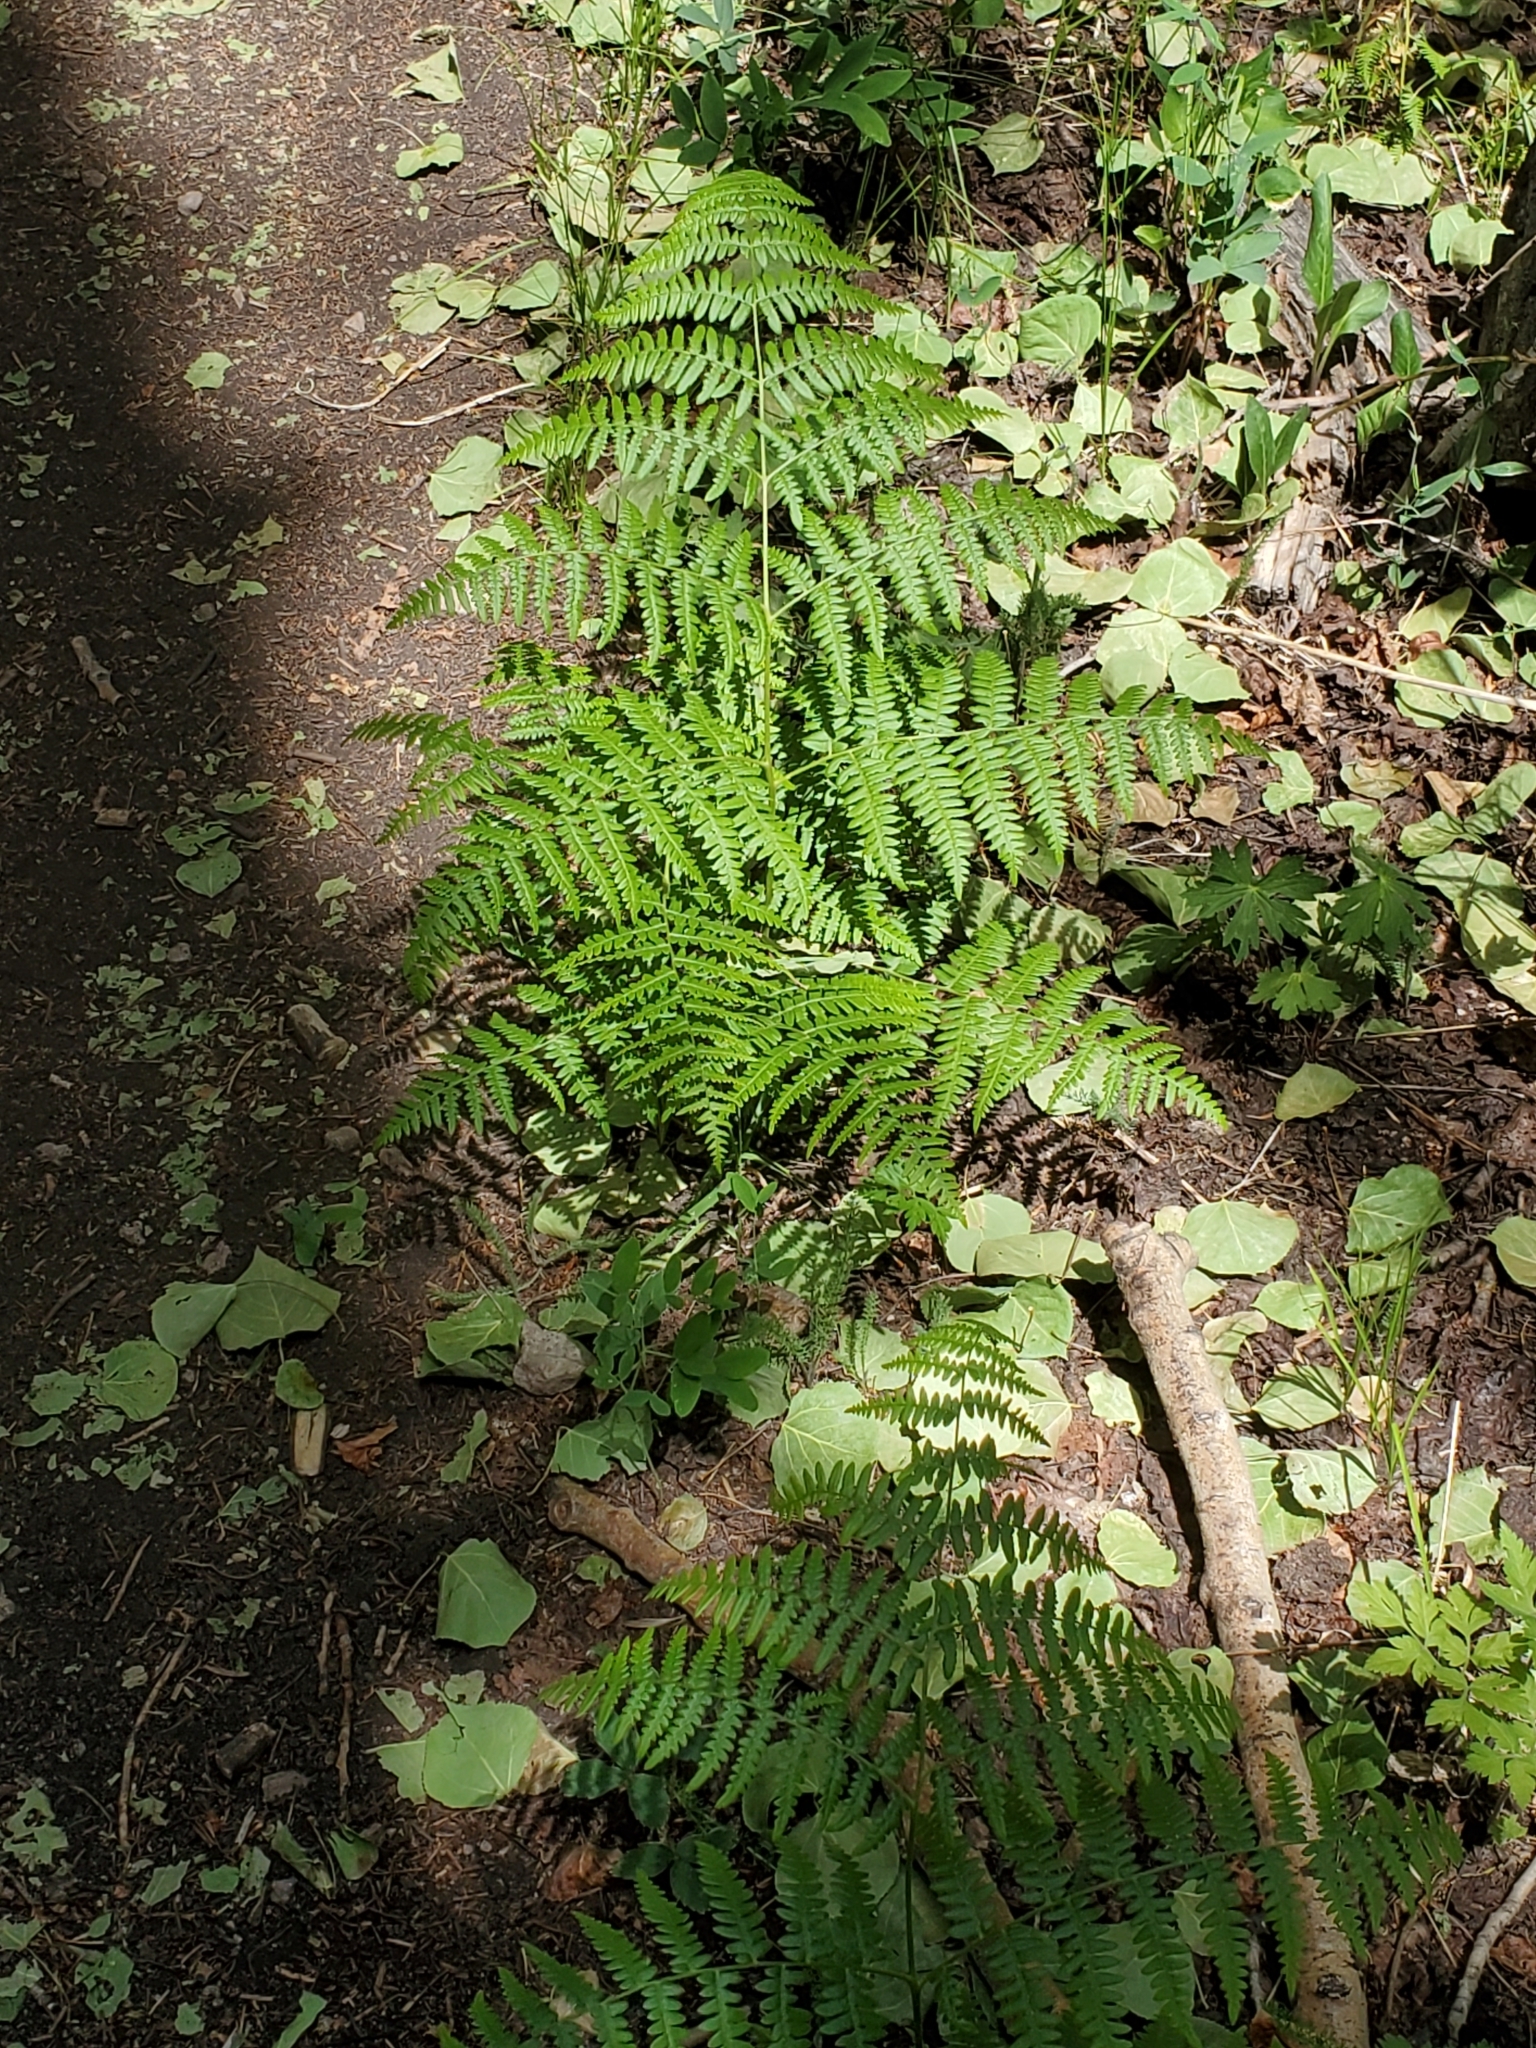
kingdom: Plantae
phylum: Tracheophyta
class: Polypodiopsida
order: Polypodiales
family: Dennstaedtiaceae
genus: Pteridium
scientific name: Pteridium aquilinum
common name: Bracken
